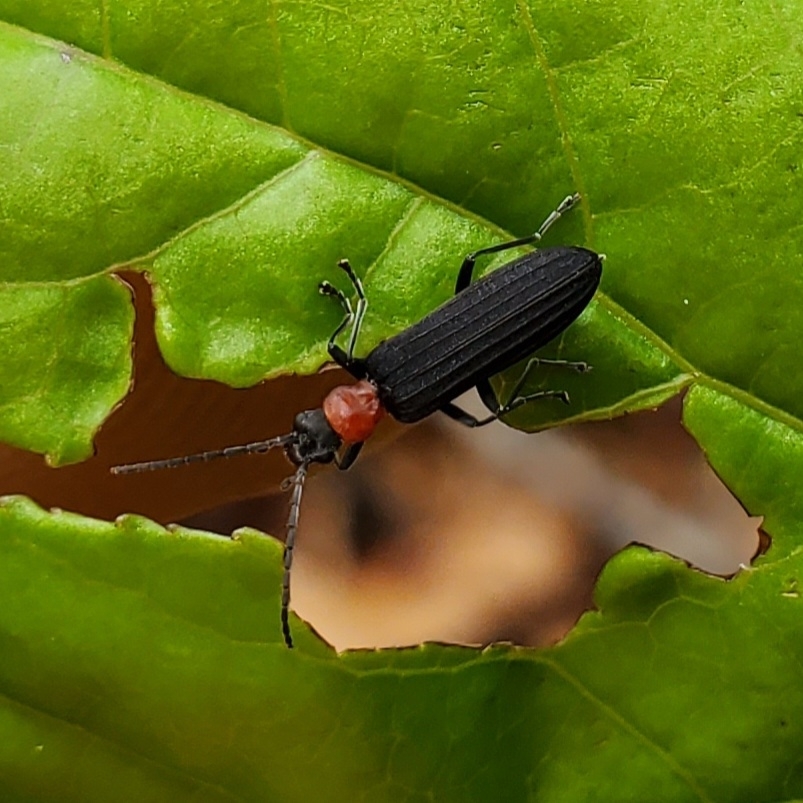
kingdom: Animalia
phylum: Arthropoda
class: Insecta
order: Coleoptera
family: Oedemeridae
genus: Ischnomera
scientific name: Ischnomera
